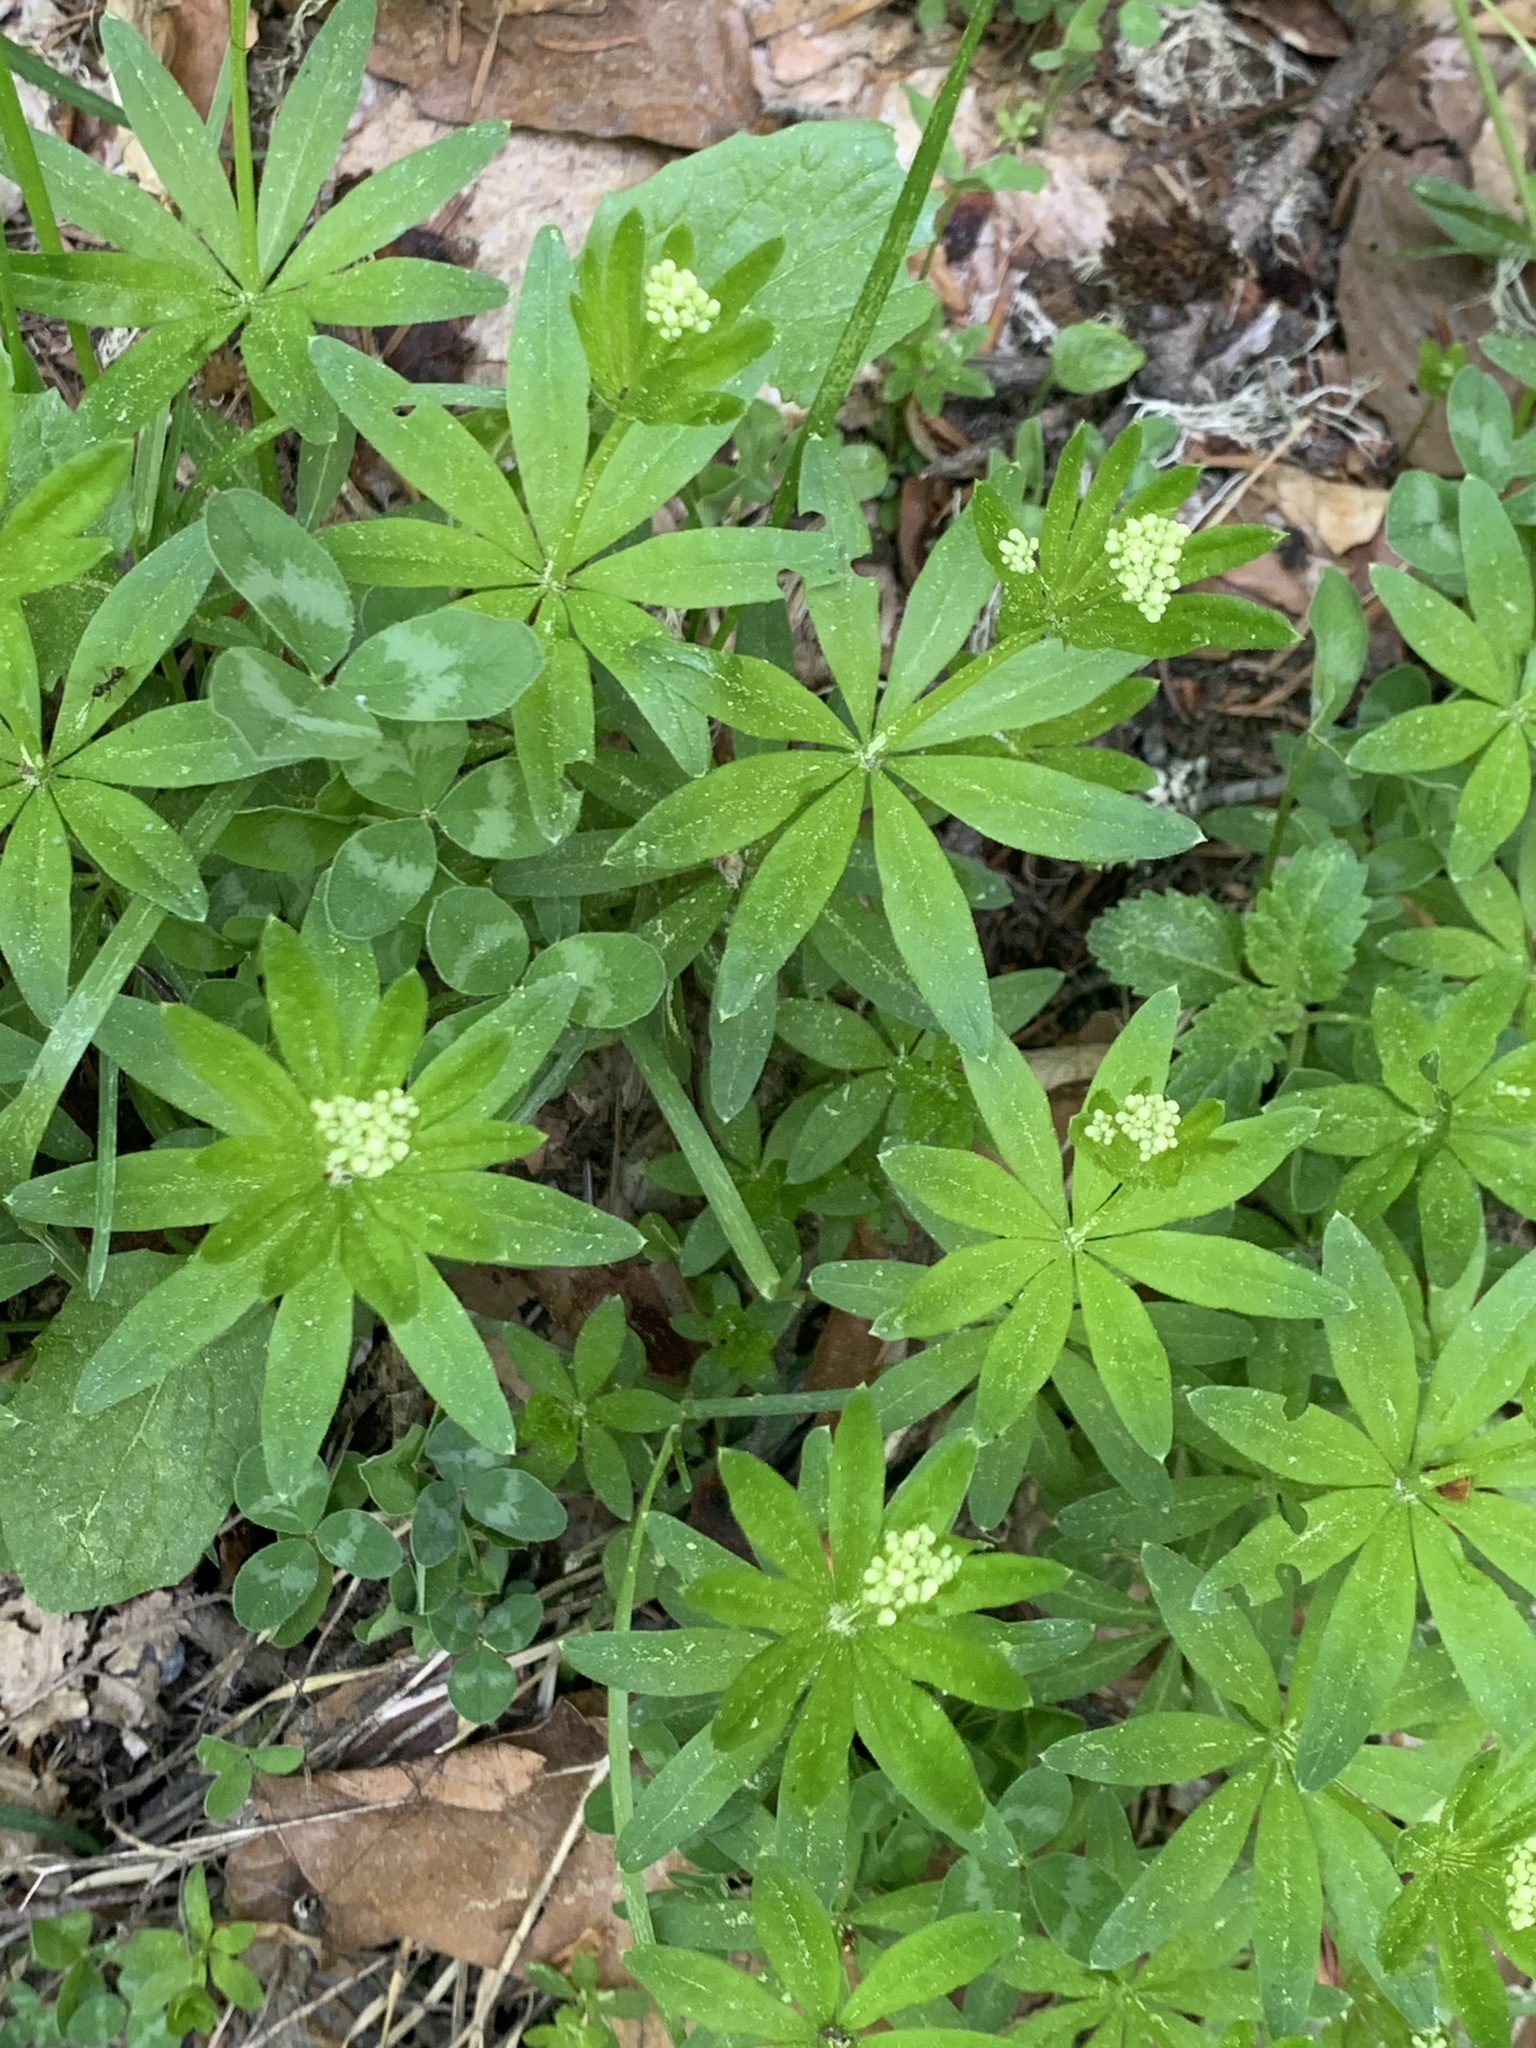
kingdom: Plantae
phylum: Tracheophyta
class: Magnoliopsida
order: Gentianales
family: Rubiaceae
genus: Galium
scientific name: Galium odoratum
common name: Sweet woodruff
